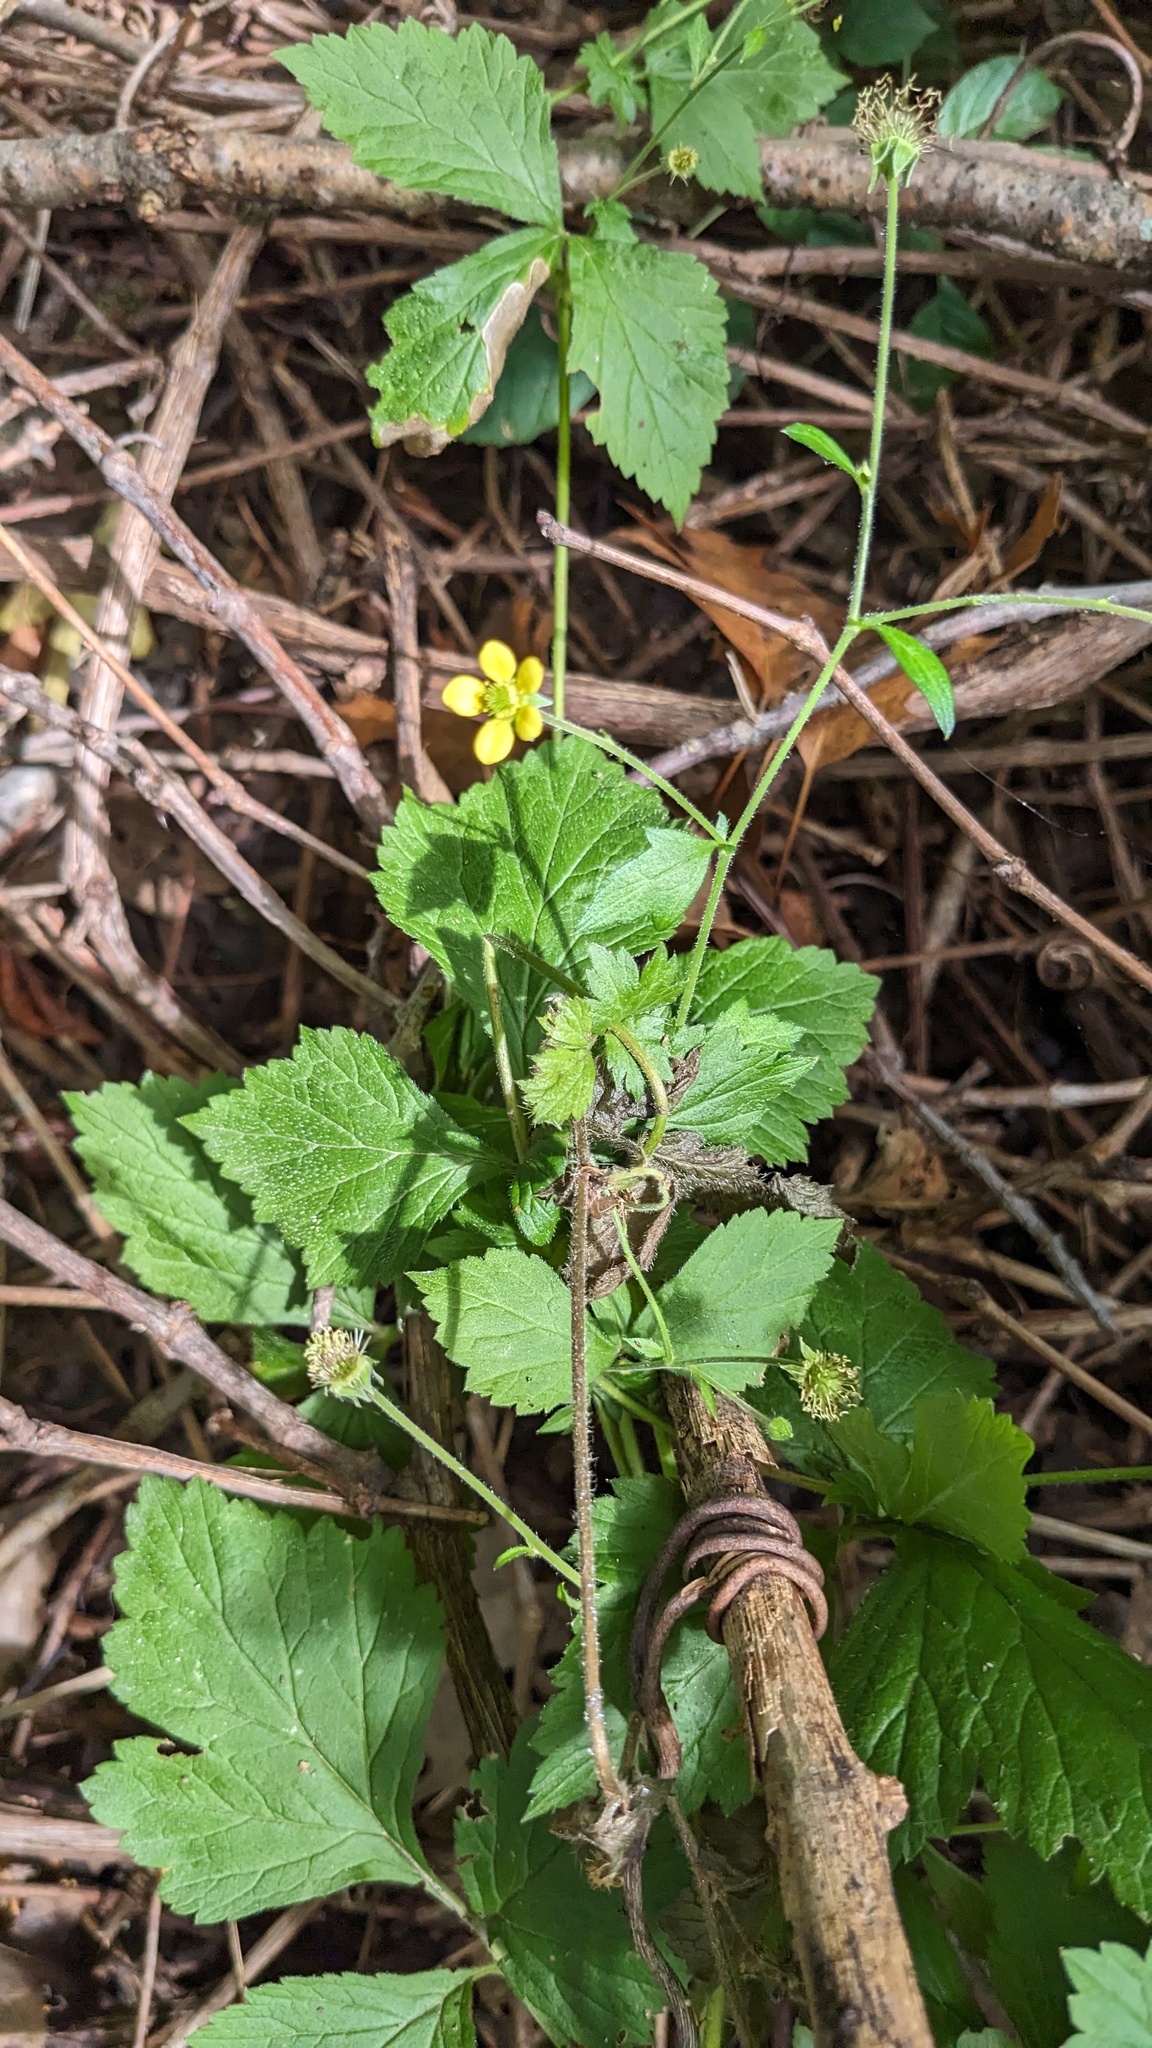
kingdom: Plantae
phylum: Tracheophyta
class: Magnoliopsida
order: Rosales
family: Rosaceae
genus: Geum
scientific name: Geum urbanum
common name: Wood avens
